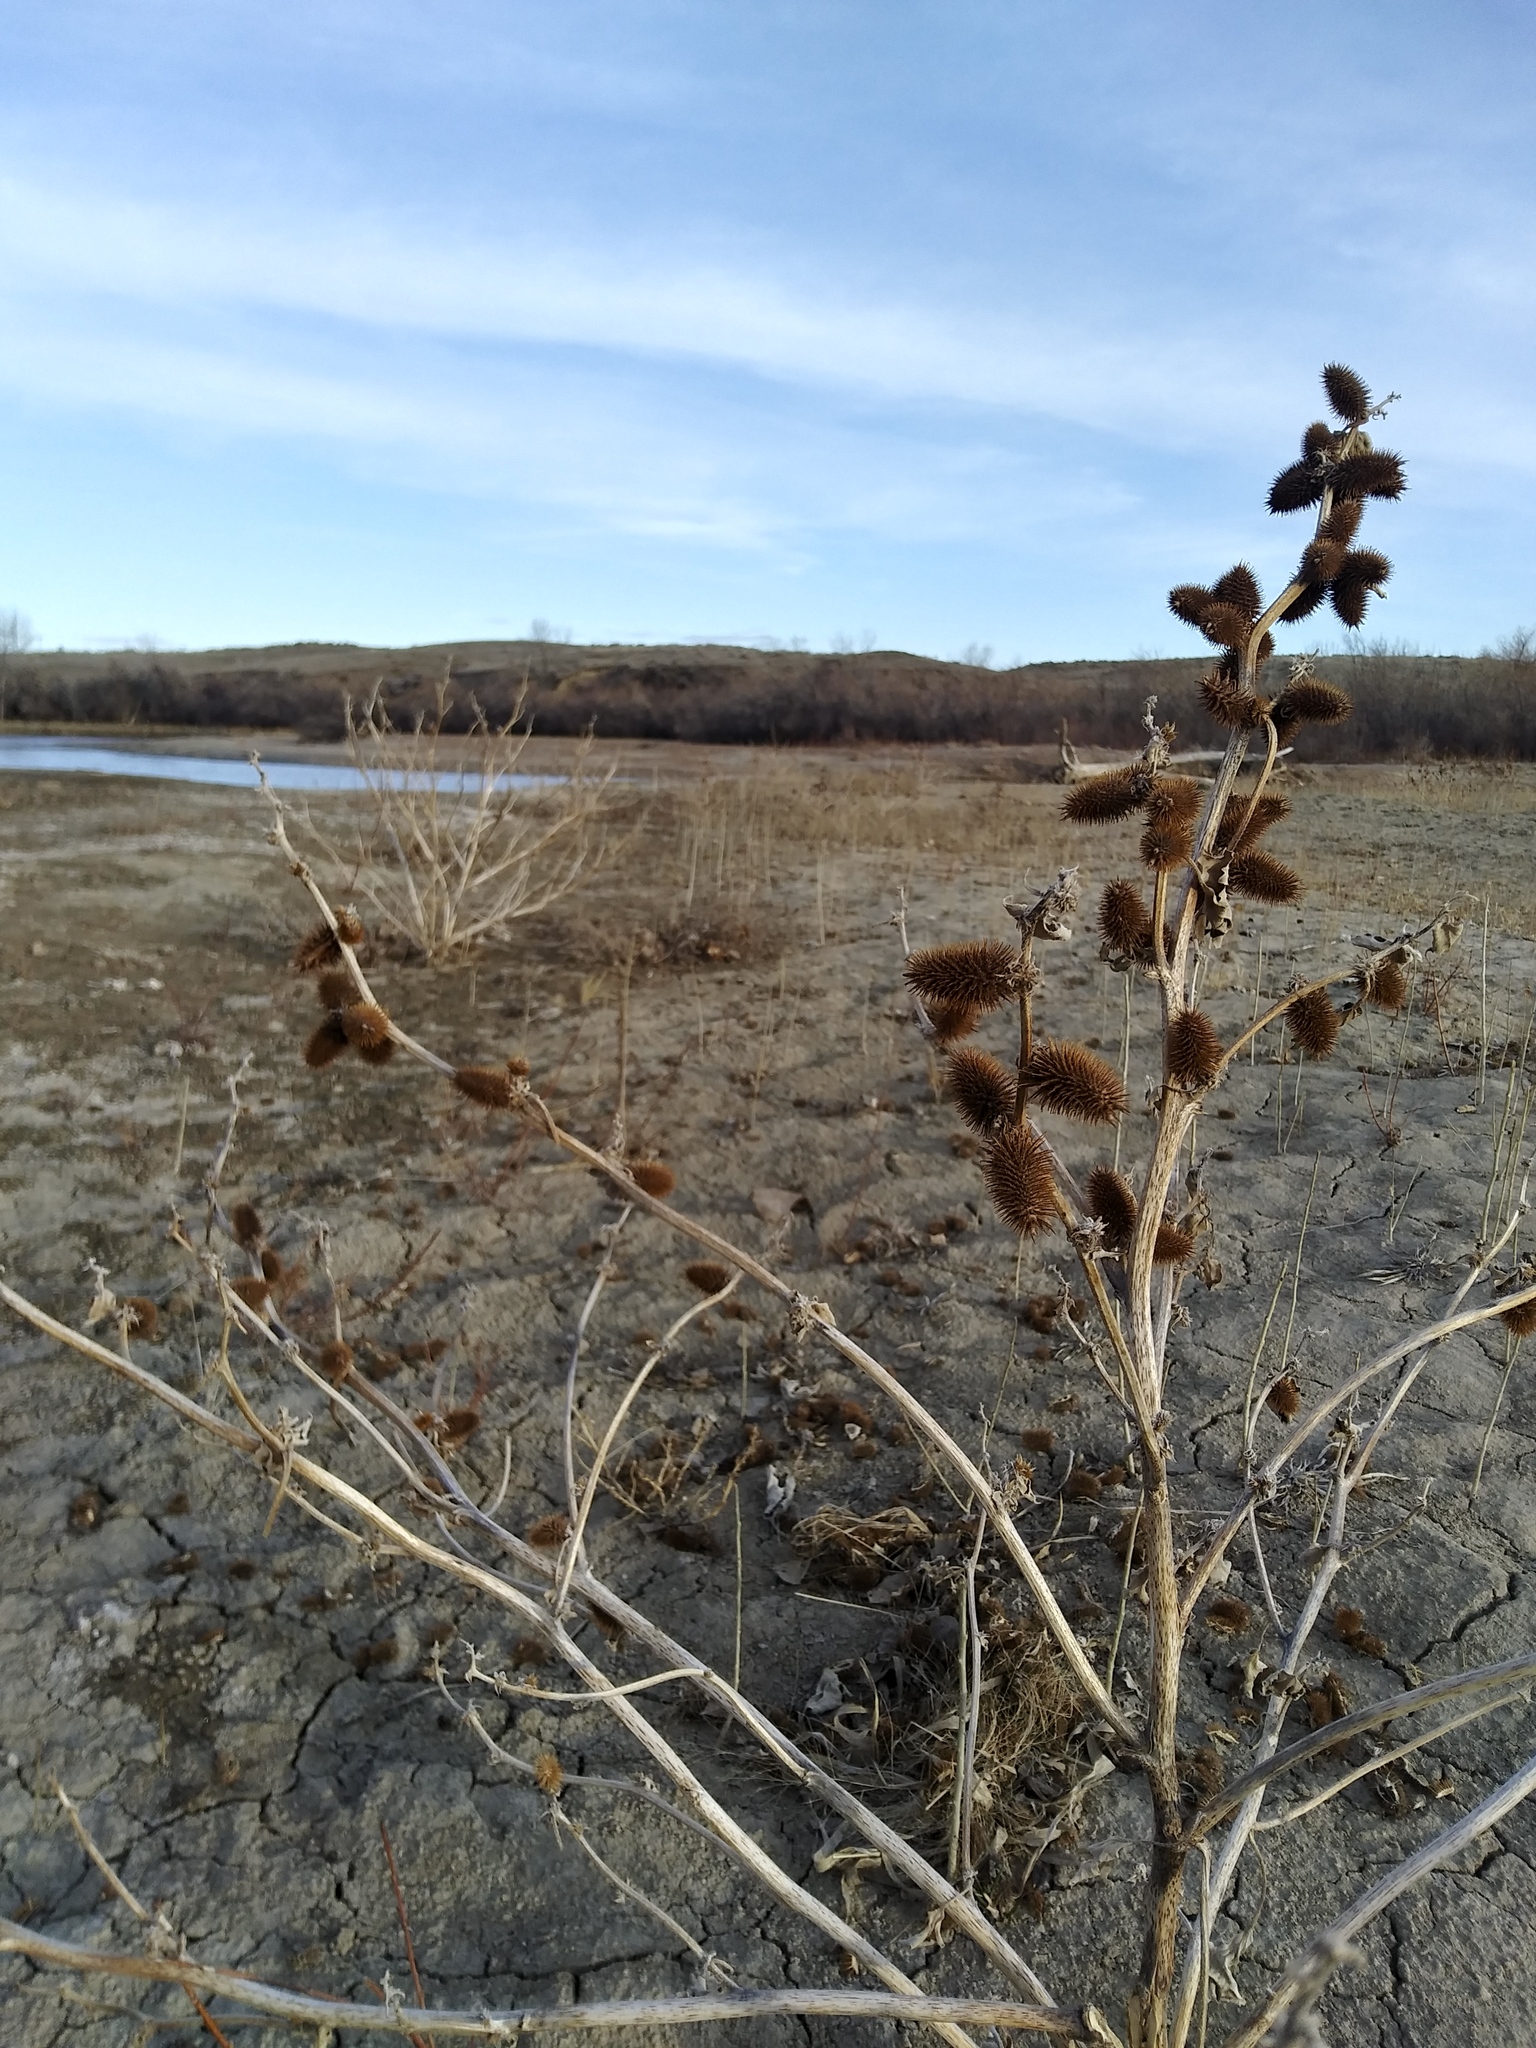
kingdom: Plantae
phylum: Tracheophyta
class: Magnoliopsida
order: Asterales
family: Asteraceae
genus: Xanthium
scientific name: Xanthium strumarium
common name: Rough cocklebur
